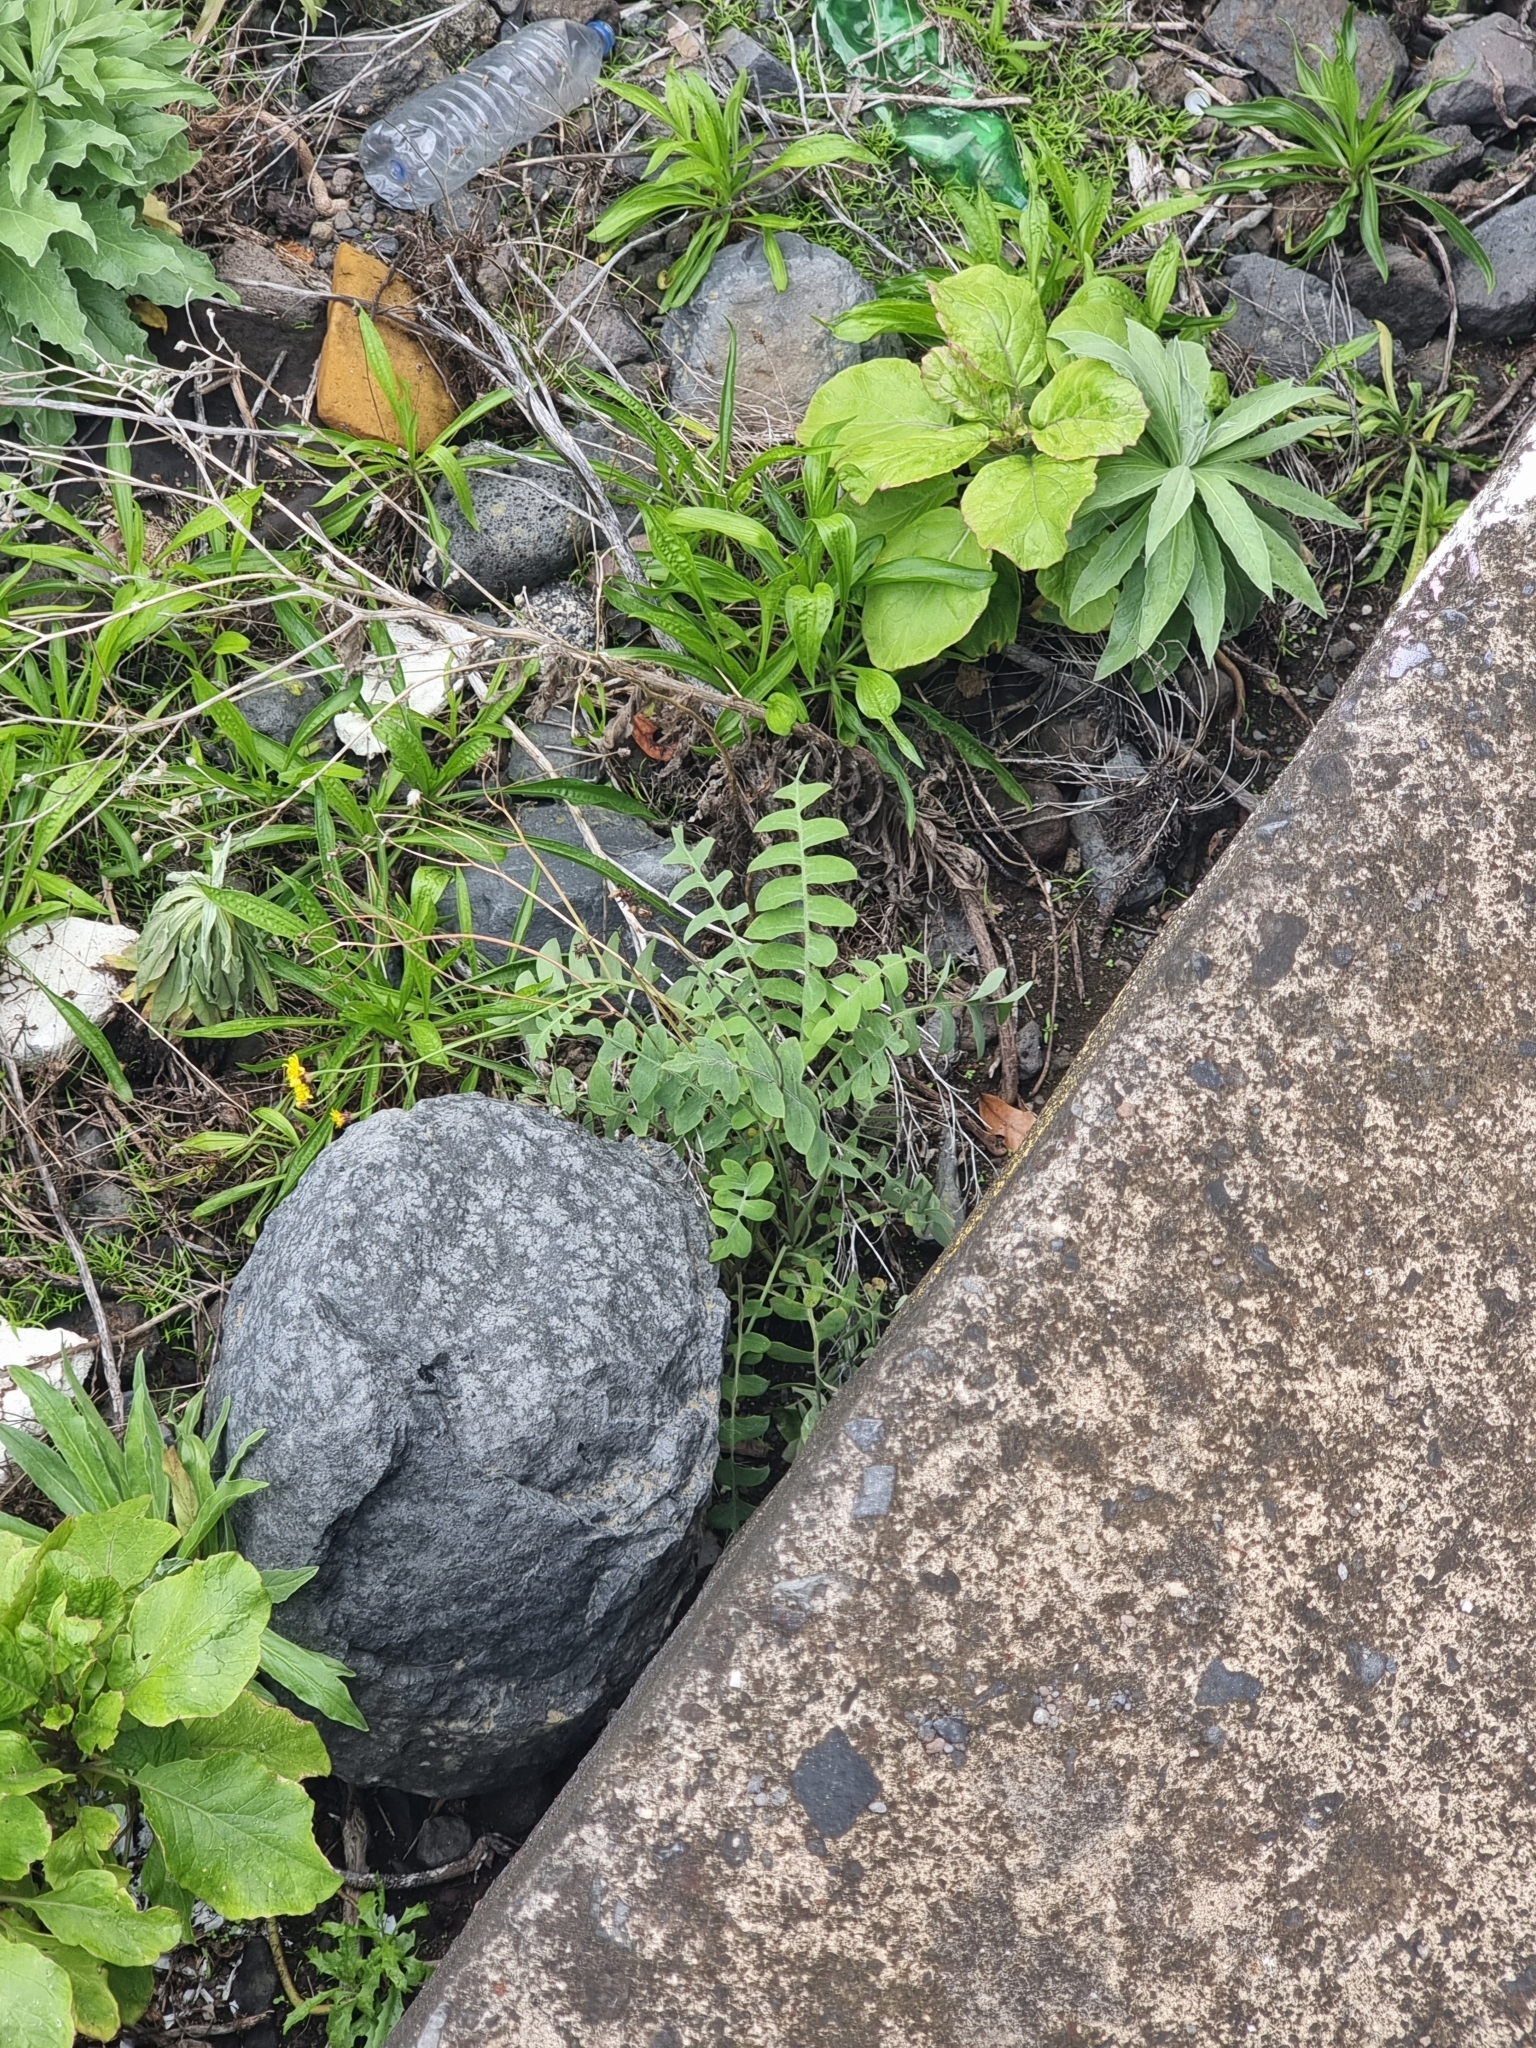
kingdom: Plantae
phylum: Tracheophyta
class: Magnoliopsida
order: Asterales
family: Asteraceae
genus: Sonchus
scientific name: Sonchus latifolius
